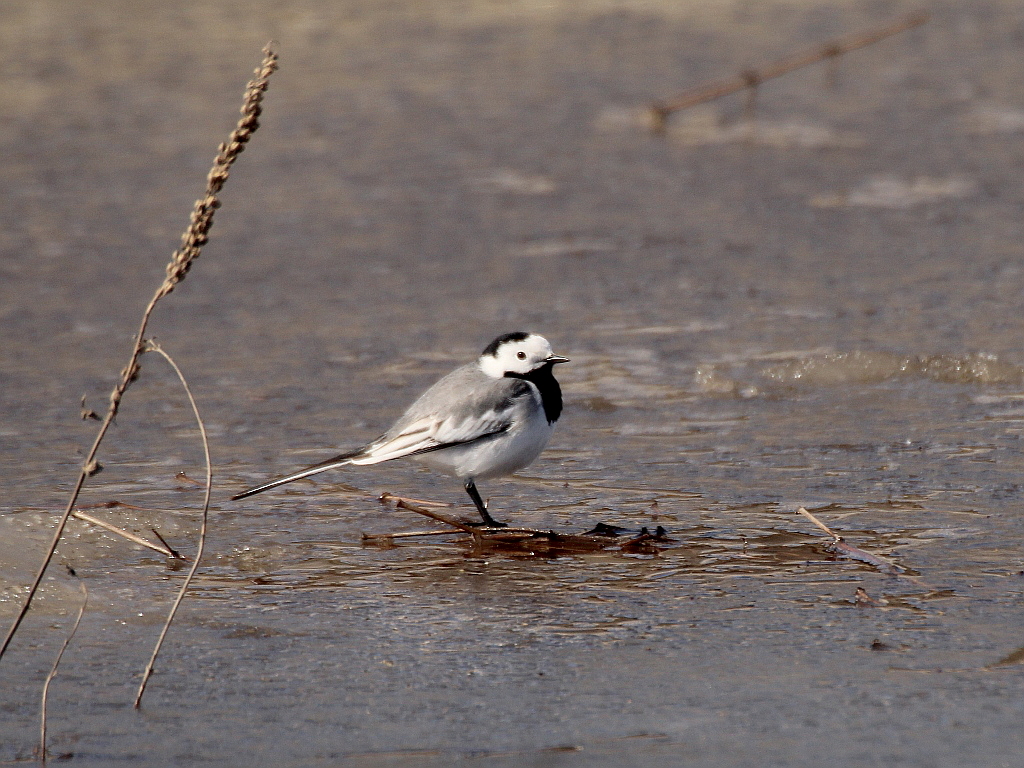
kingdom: Animalia
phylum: Chordata
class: Aves
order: Passeriformes
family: Motacillidae
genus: Motacilla
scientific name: Motacilla alba
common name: White wagtail
